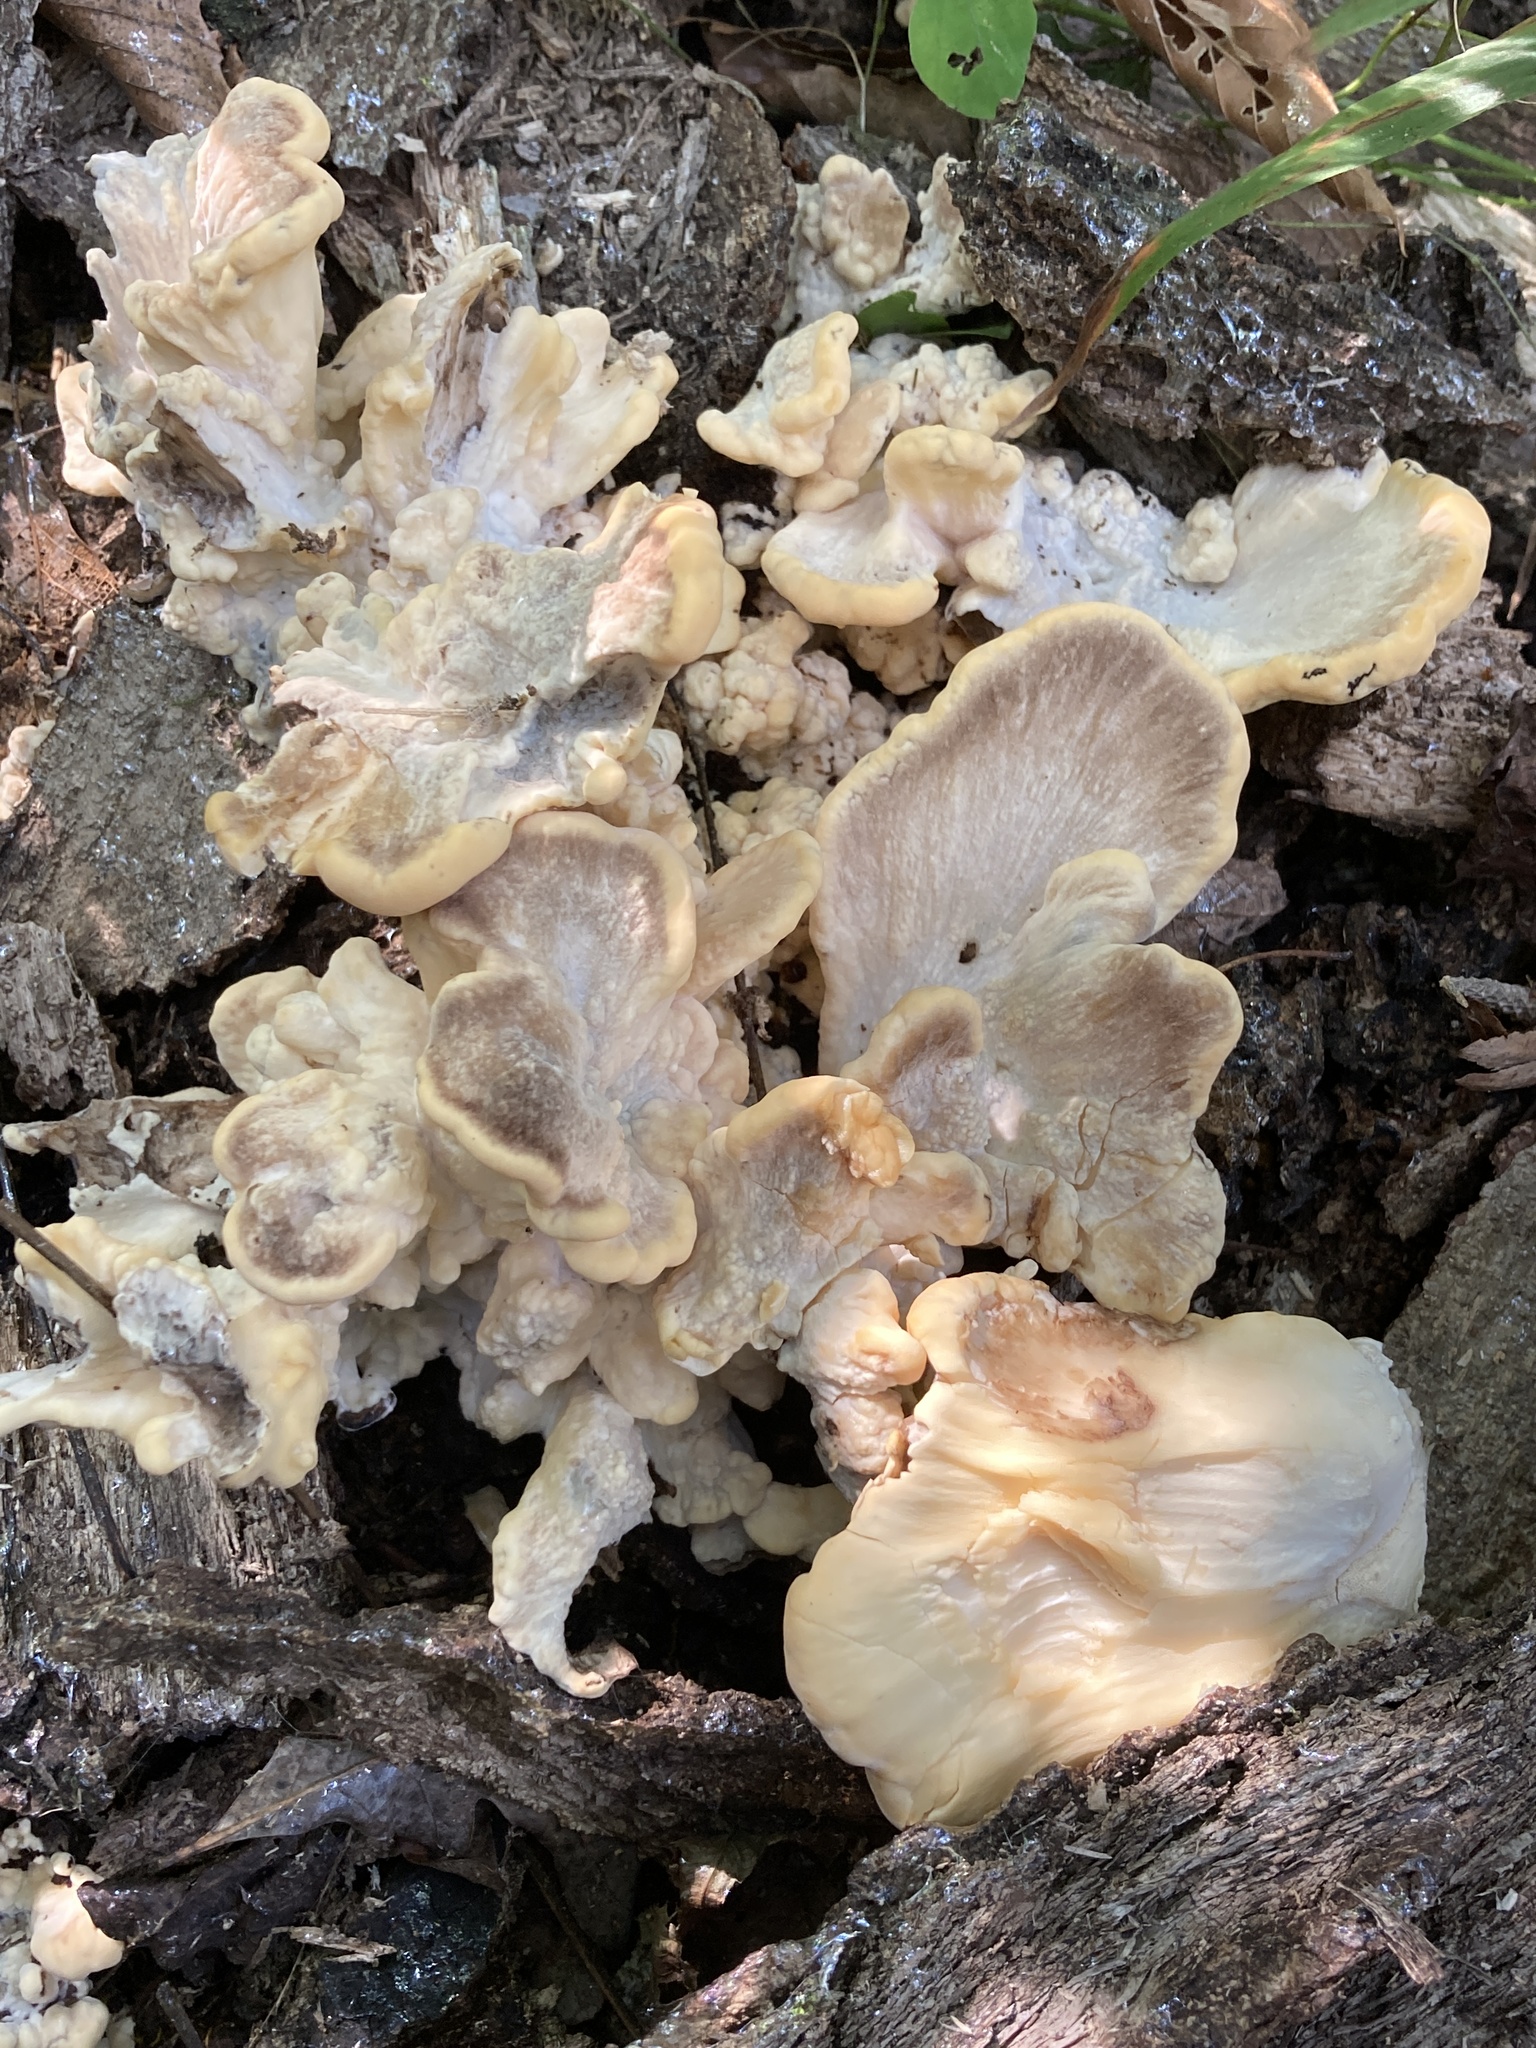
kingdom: Fungi
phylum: Basidiomycota
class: Agaricomycetes
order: Polyporales
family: Meripilaceae
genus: Meripilus
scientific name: Meripilus sumstinei
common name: Black-staining polypore
